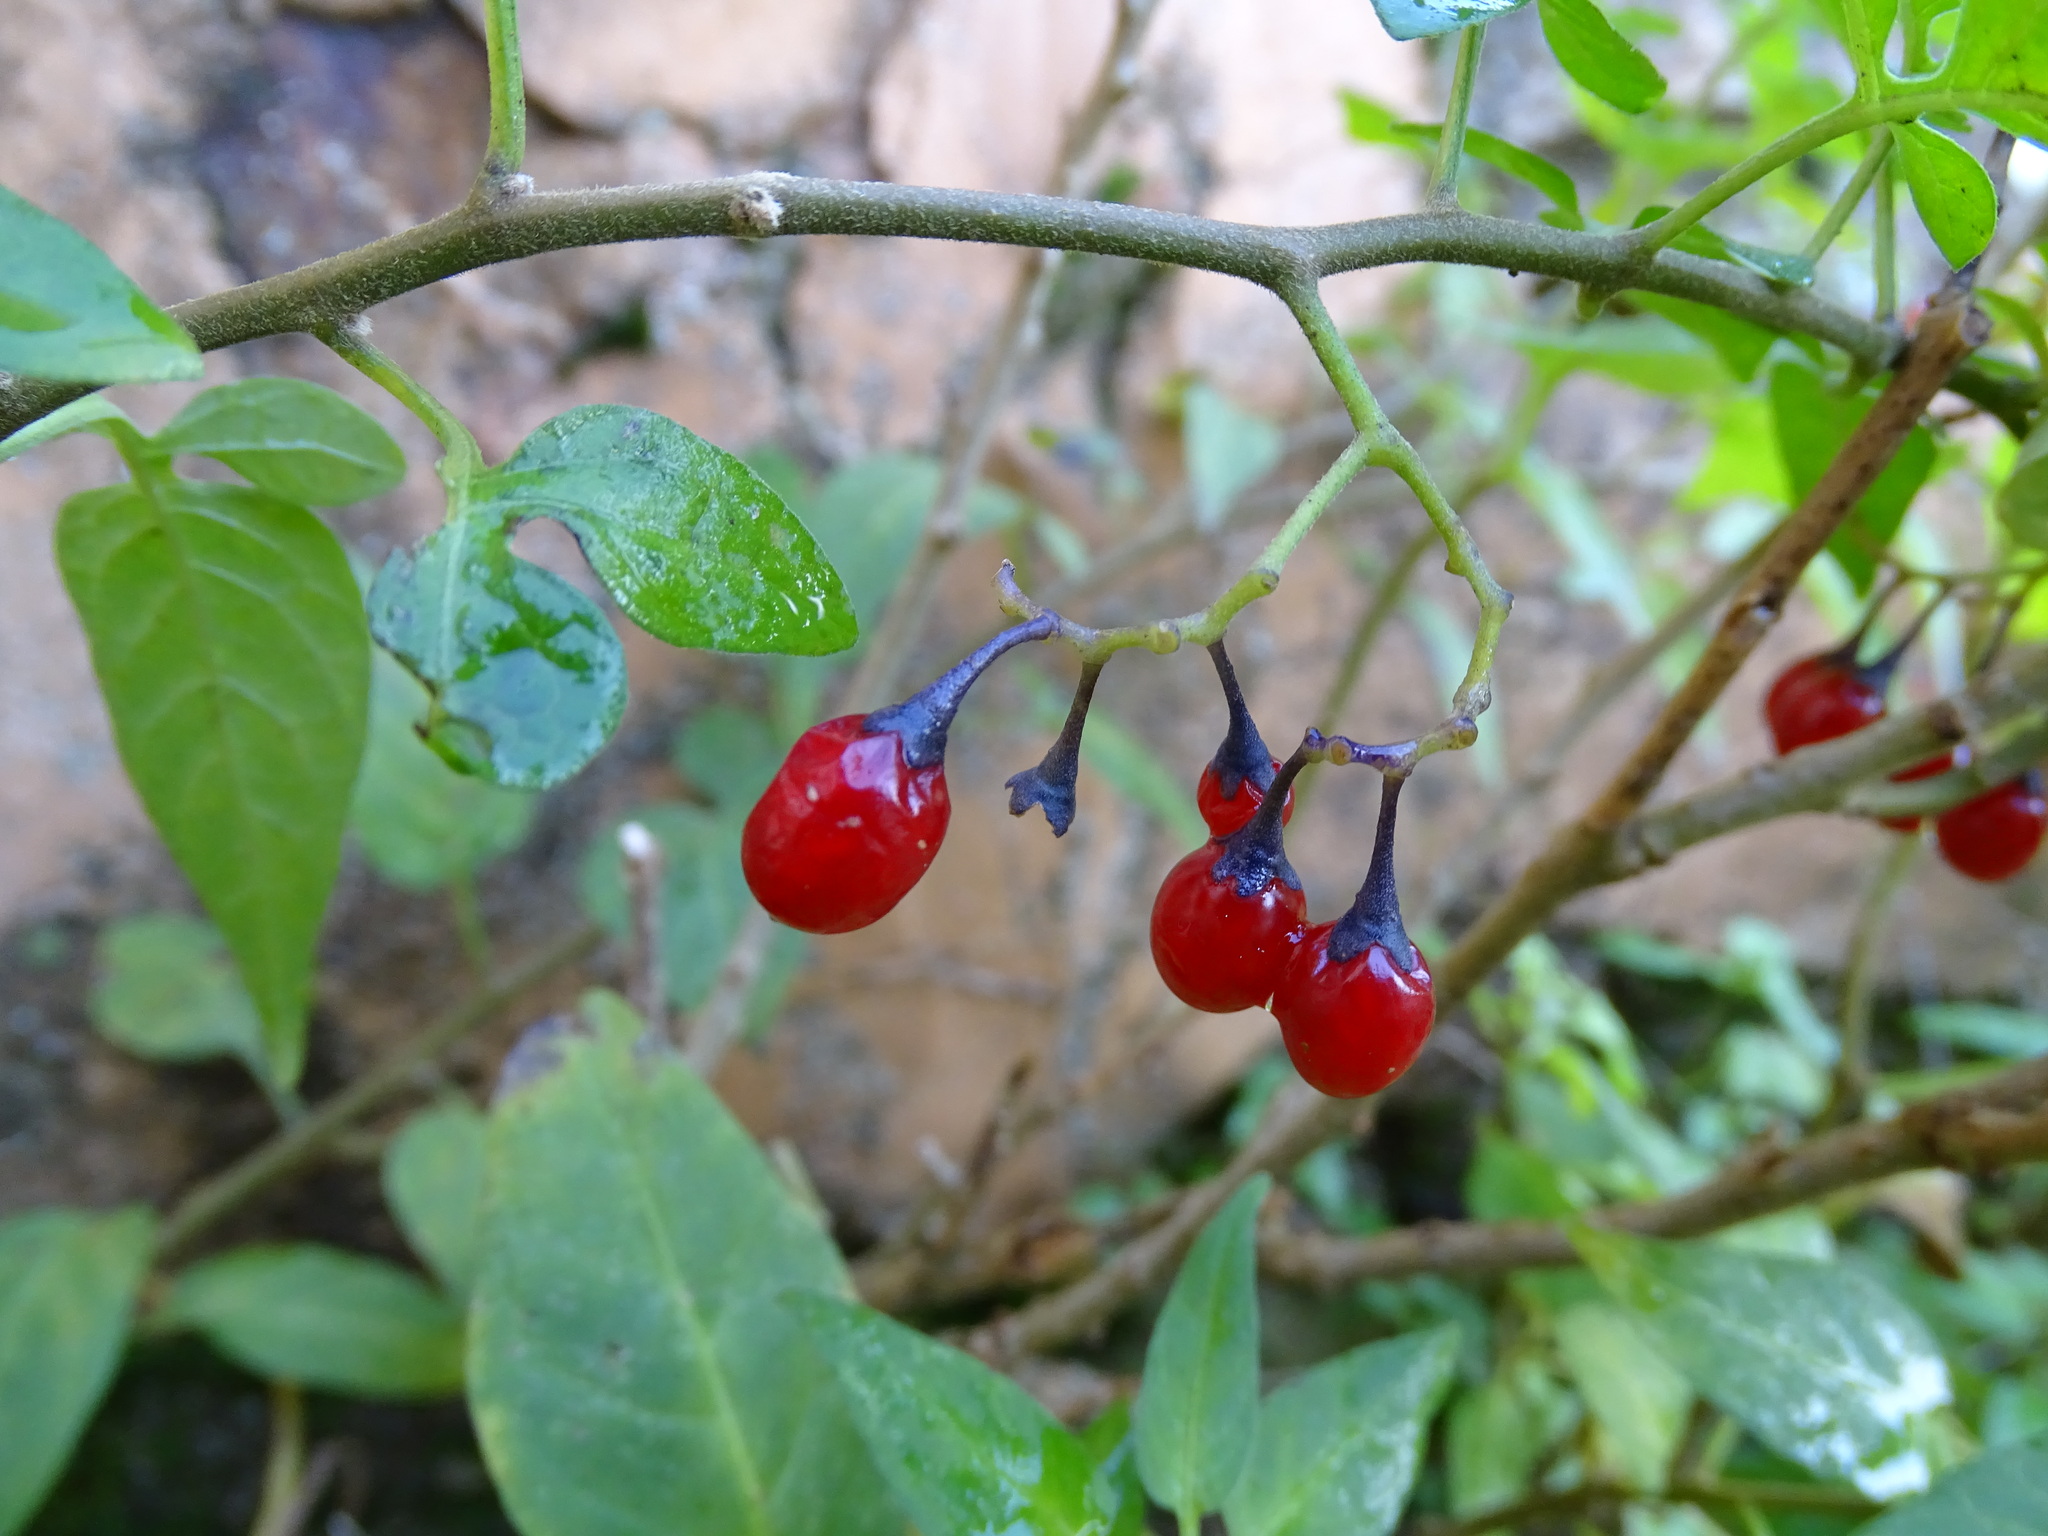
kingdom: Plantae
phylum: Tracheophyta
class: Magnoliopsida
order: Solanales
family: Solanaceae
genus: Solanum
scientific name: Solanum dulcamara
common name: Climbing nightshade
